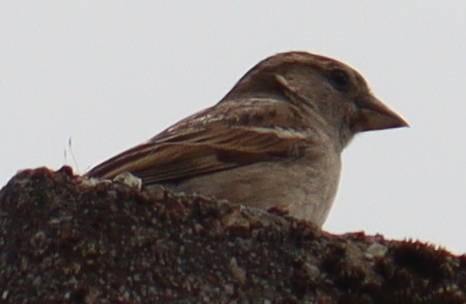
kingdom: Animalia
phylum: Chordata
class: Aves
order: Passeriformes
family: Passeridae
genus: Passer
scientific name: Passer domesticus
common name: House sparrow
